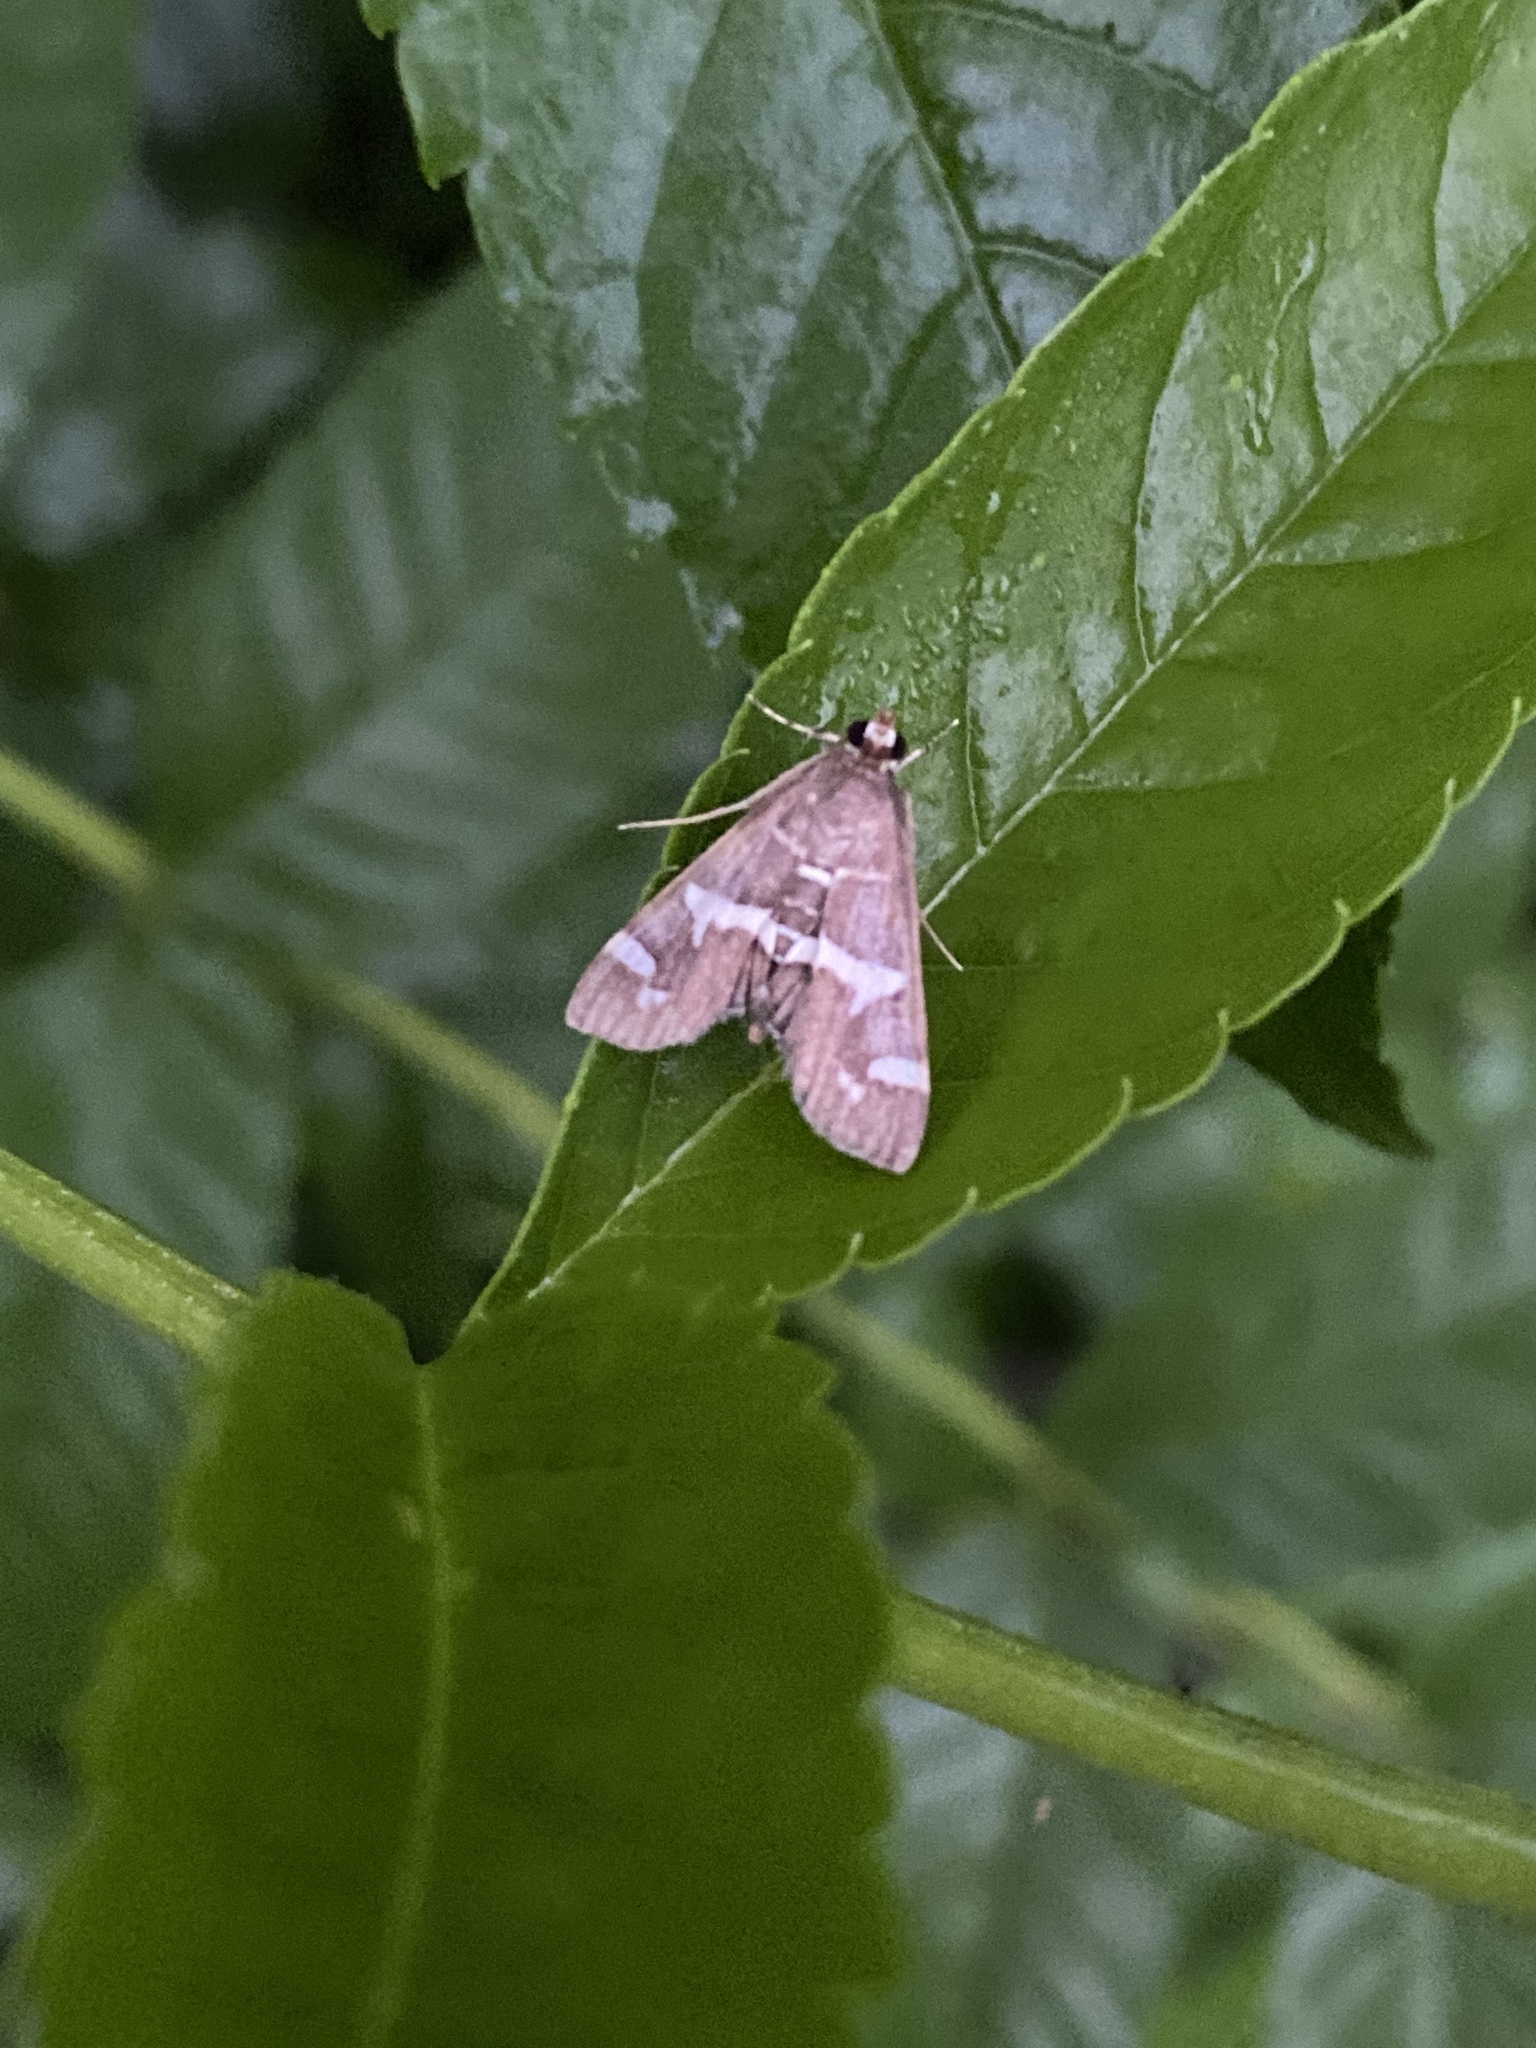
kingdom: Animalia
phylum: Arthropoda
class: Insecta
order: Lepidoptera
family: Crambidae
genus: Spoladea
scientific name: Spoladea recurvalis
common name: Beet webworm moth
